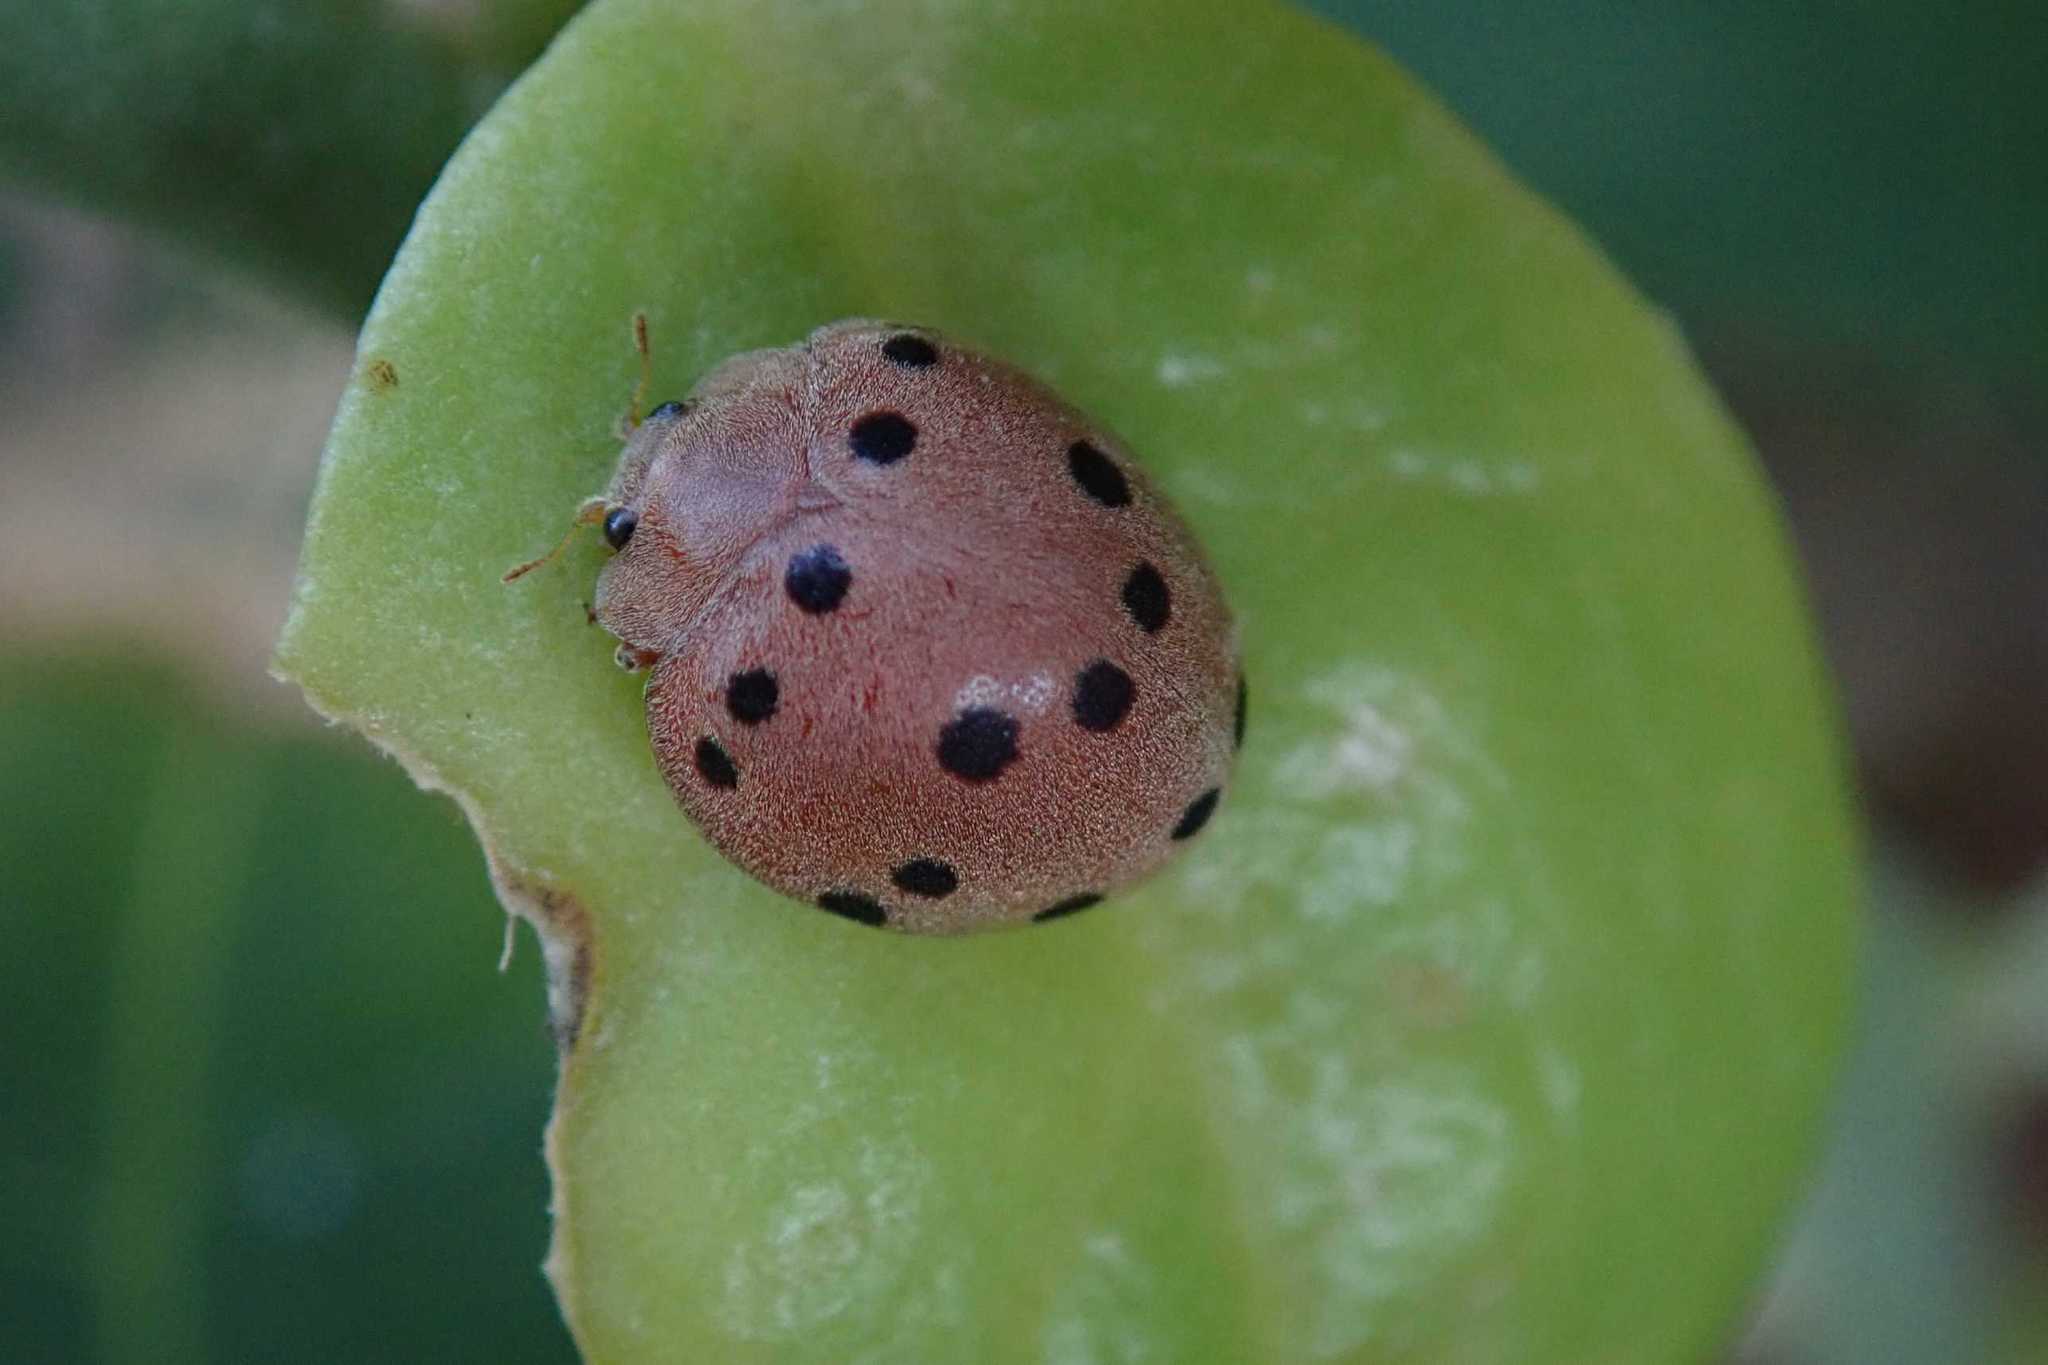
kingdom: Animalia
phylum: Arthropoda
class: Insecta
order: Coleoptera
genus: Solanophila
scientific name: Solanophila
